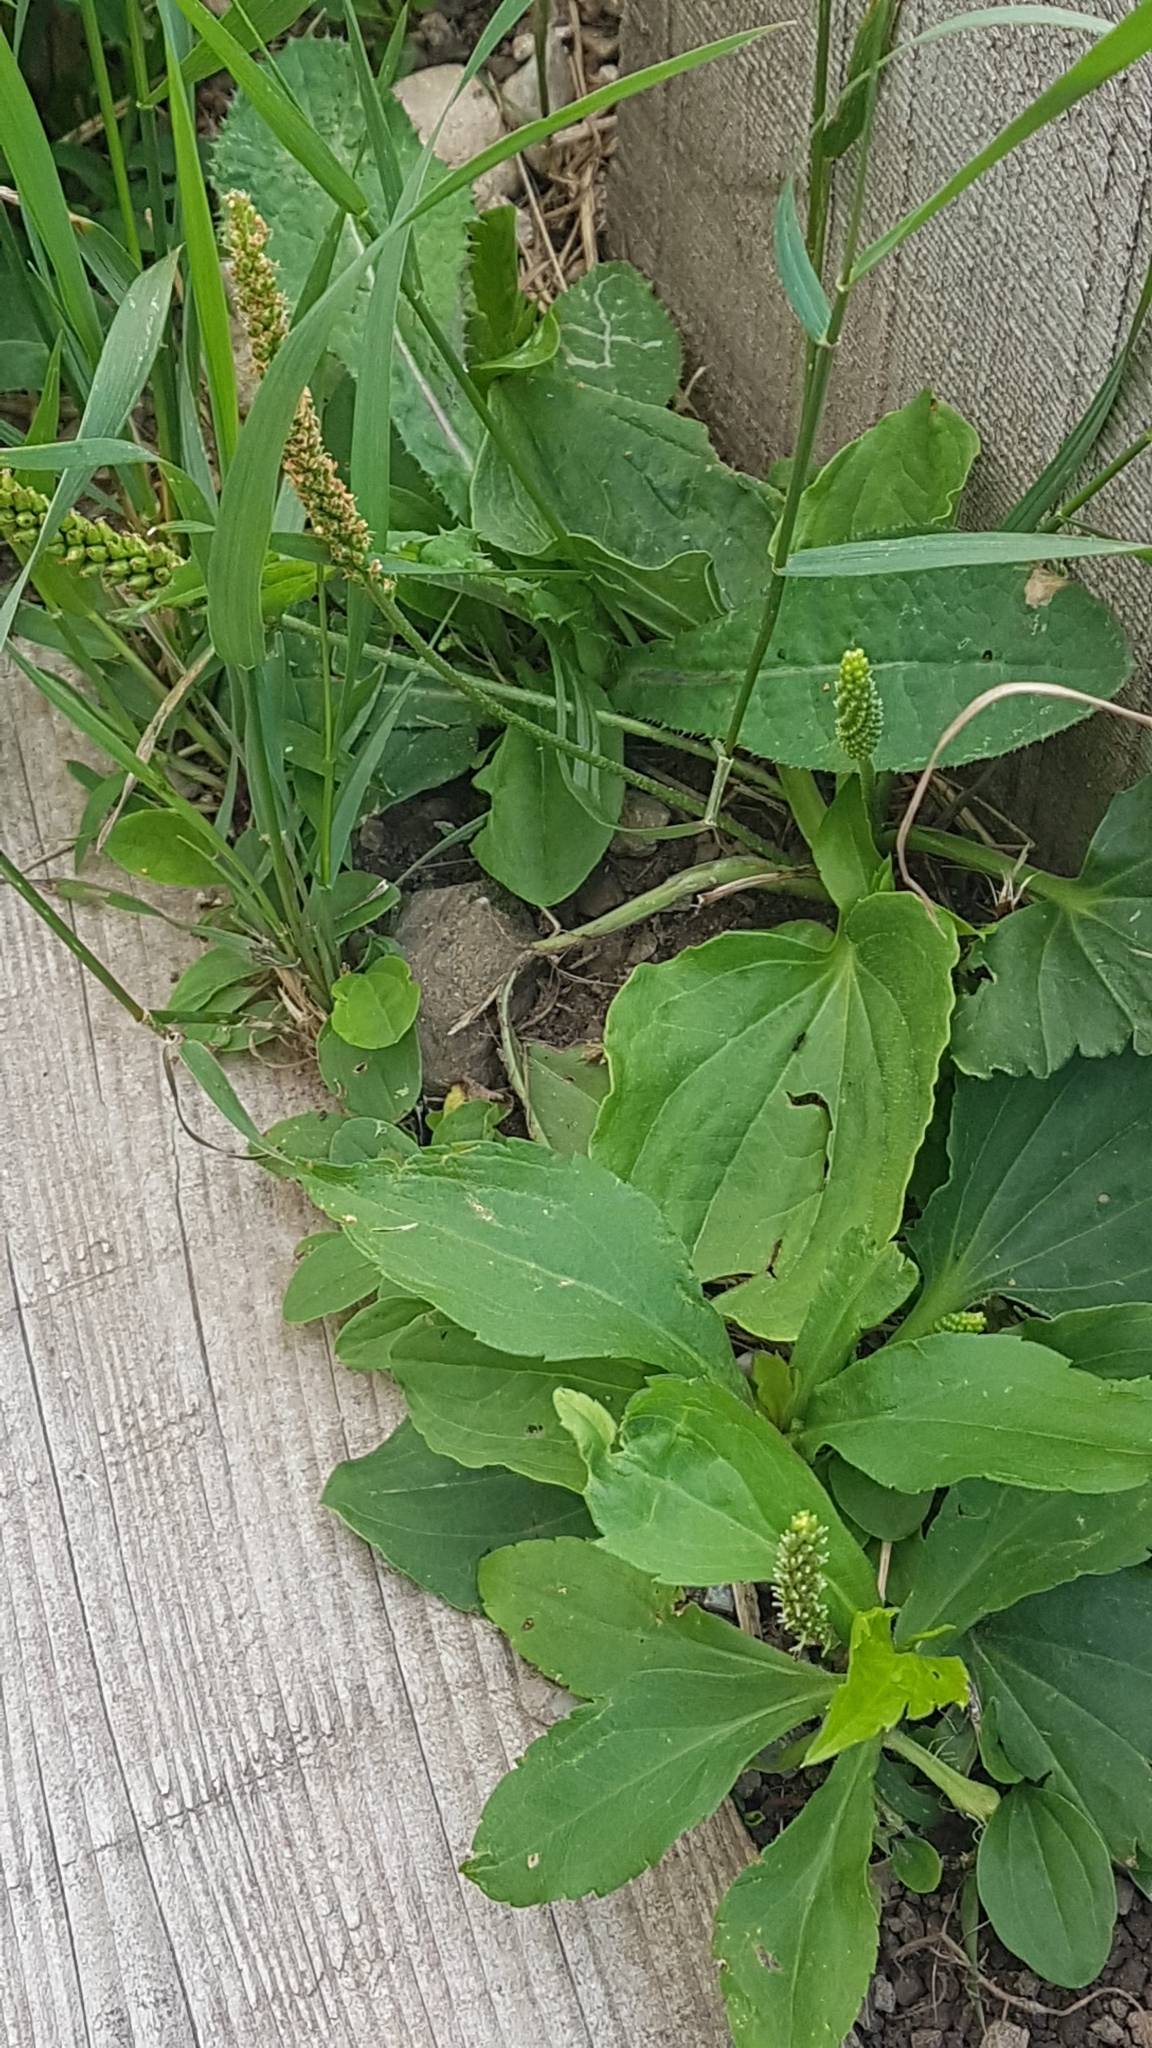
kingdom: Plantae
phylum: Tracheophyta
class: Magnoliopsida
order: Lamiales
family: Plantaginaceae
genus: Plantago
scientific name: Plantago major
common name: Common plantain
